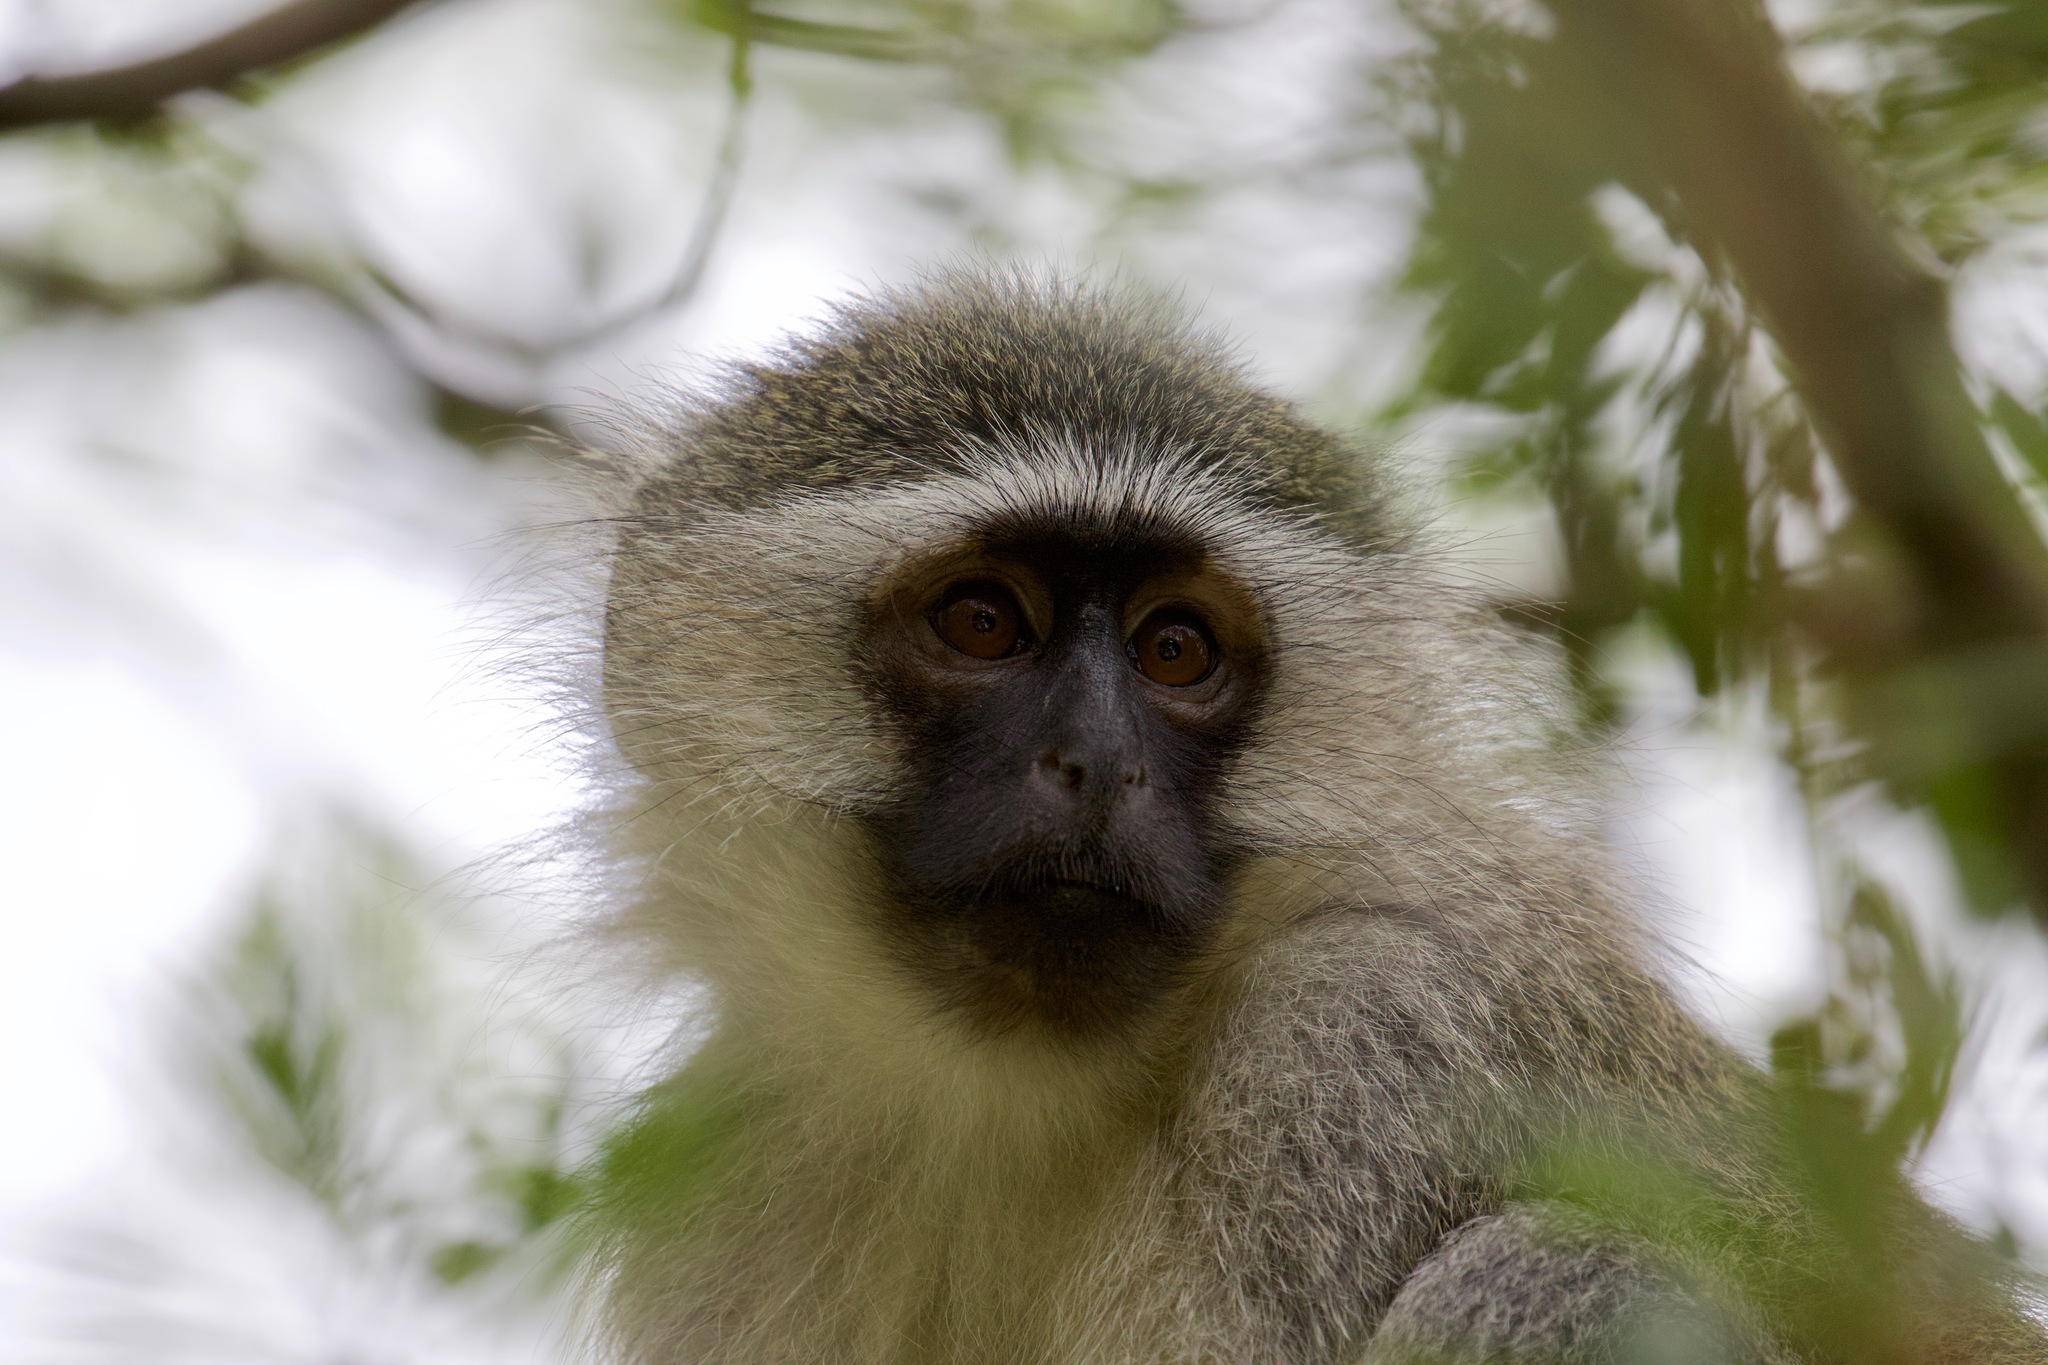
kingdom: Animalia
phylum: Chordata
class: Mammalia
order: Primates
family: Cercopithecidae
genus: Chlorocebus
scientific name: Chlorocebus pygerythrus
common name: Vervet monkey
